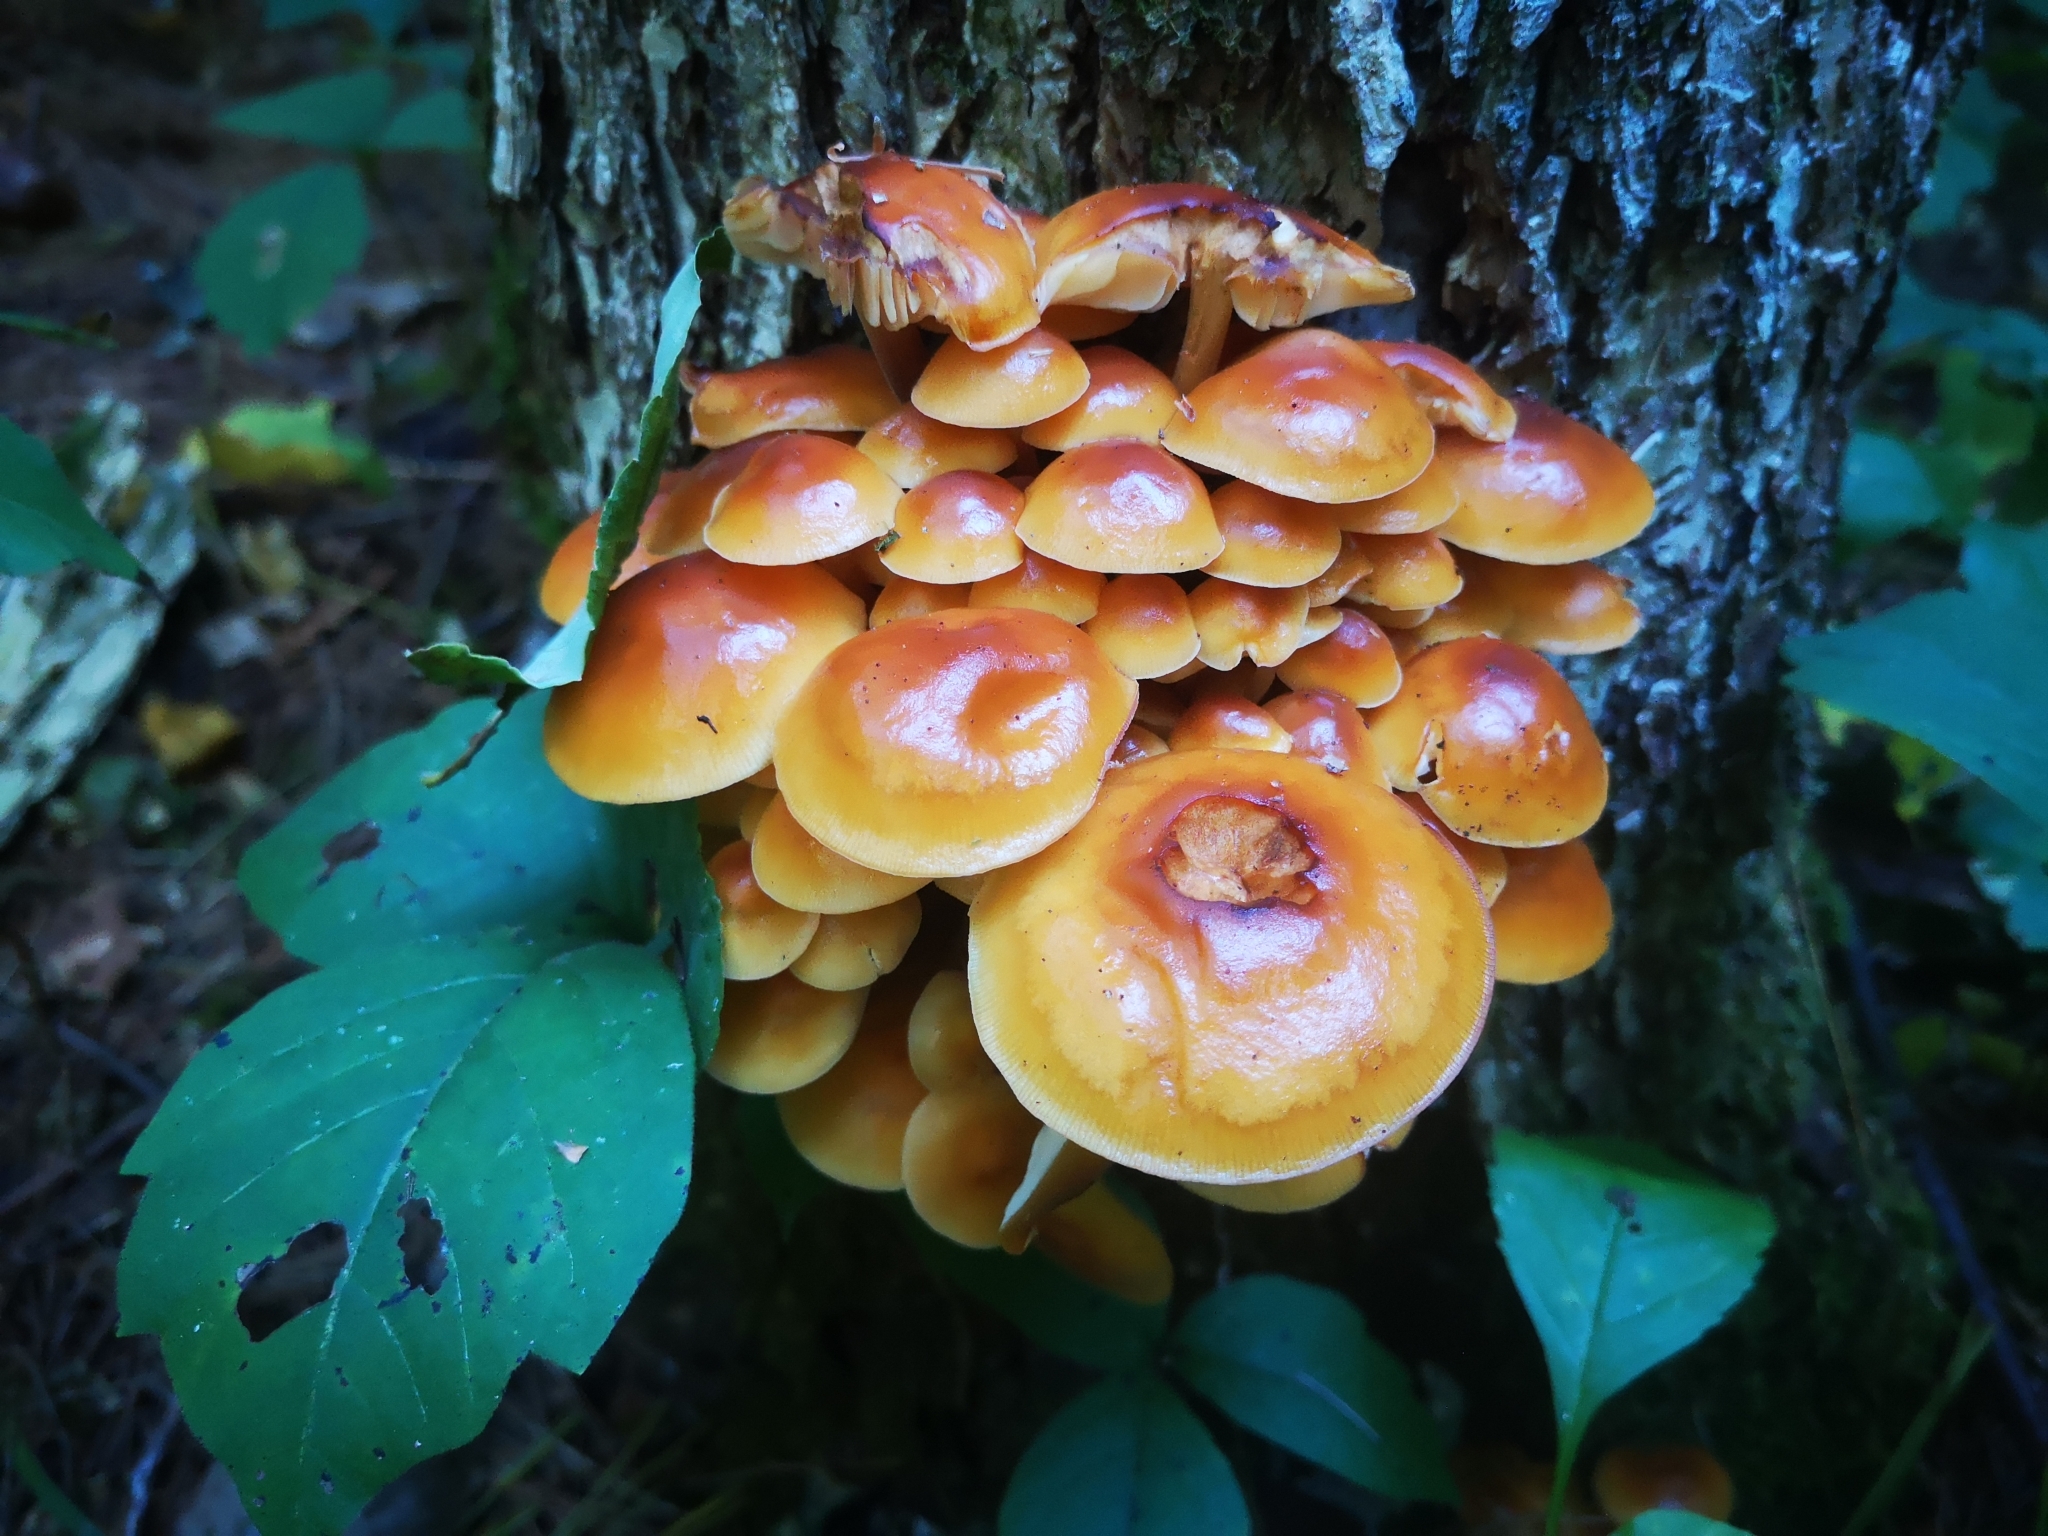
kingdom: Fungi
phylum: Basidiomycota
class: Agaricomycetes
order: Agaricales
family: Physalacriaceae
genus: Flammulina
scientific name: Flammulina velutipes
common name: Velvet shank
